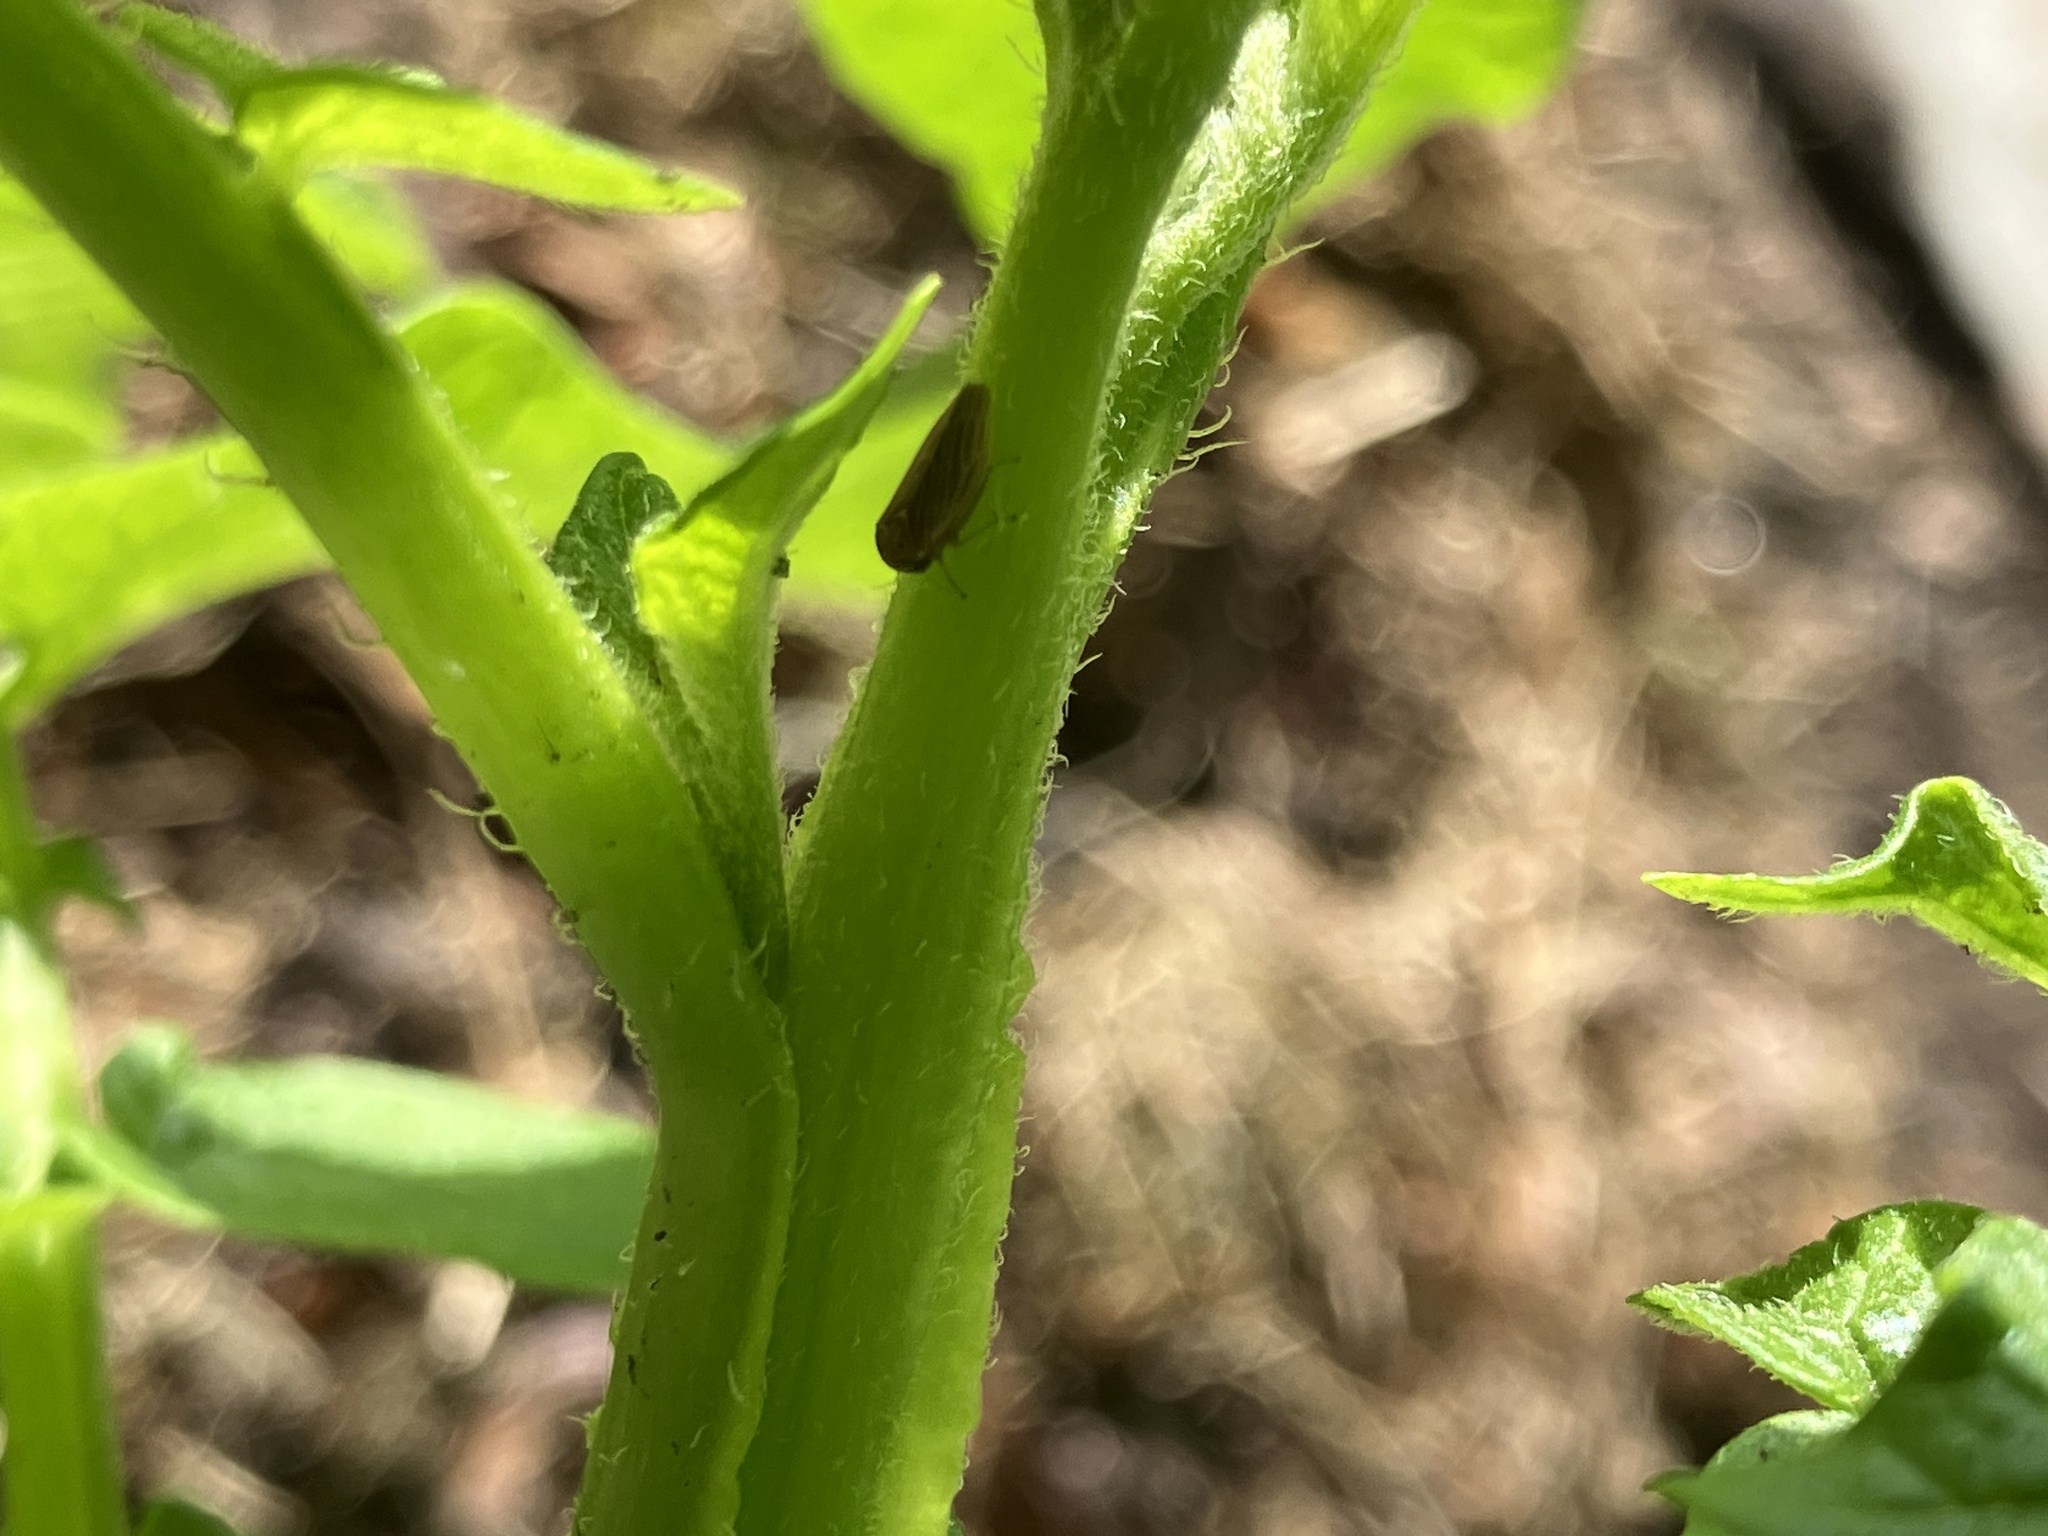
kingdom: Animalia
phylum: Arthropoda
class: Insecta
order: Hemiptera
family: Cicadellidae
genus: Agallia
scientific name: Agallia constricta
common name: The constricted leafhopper
